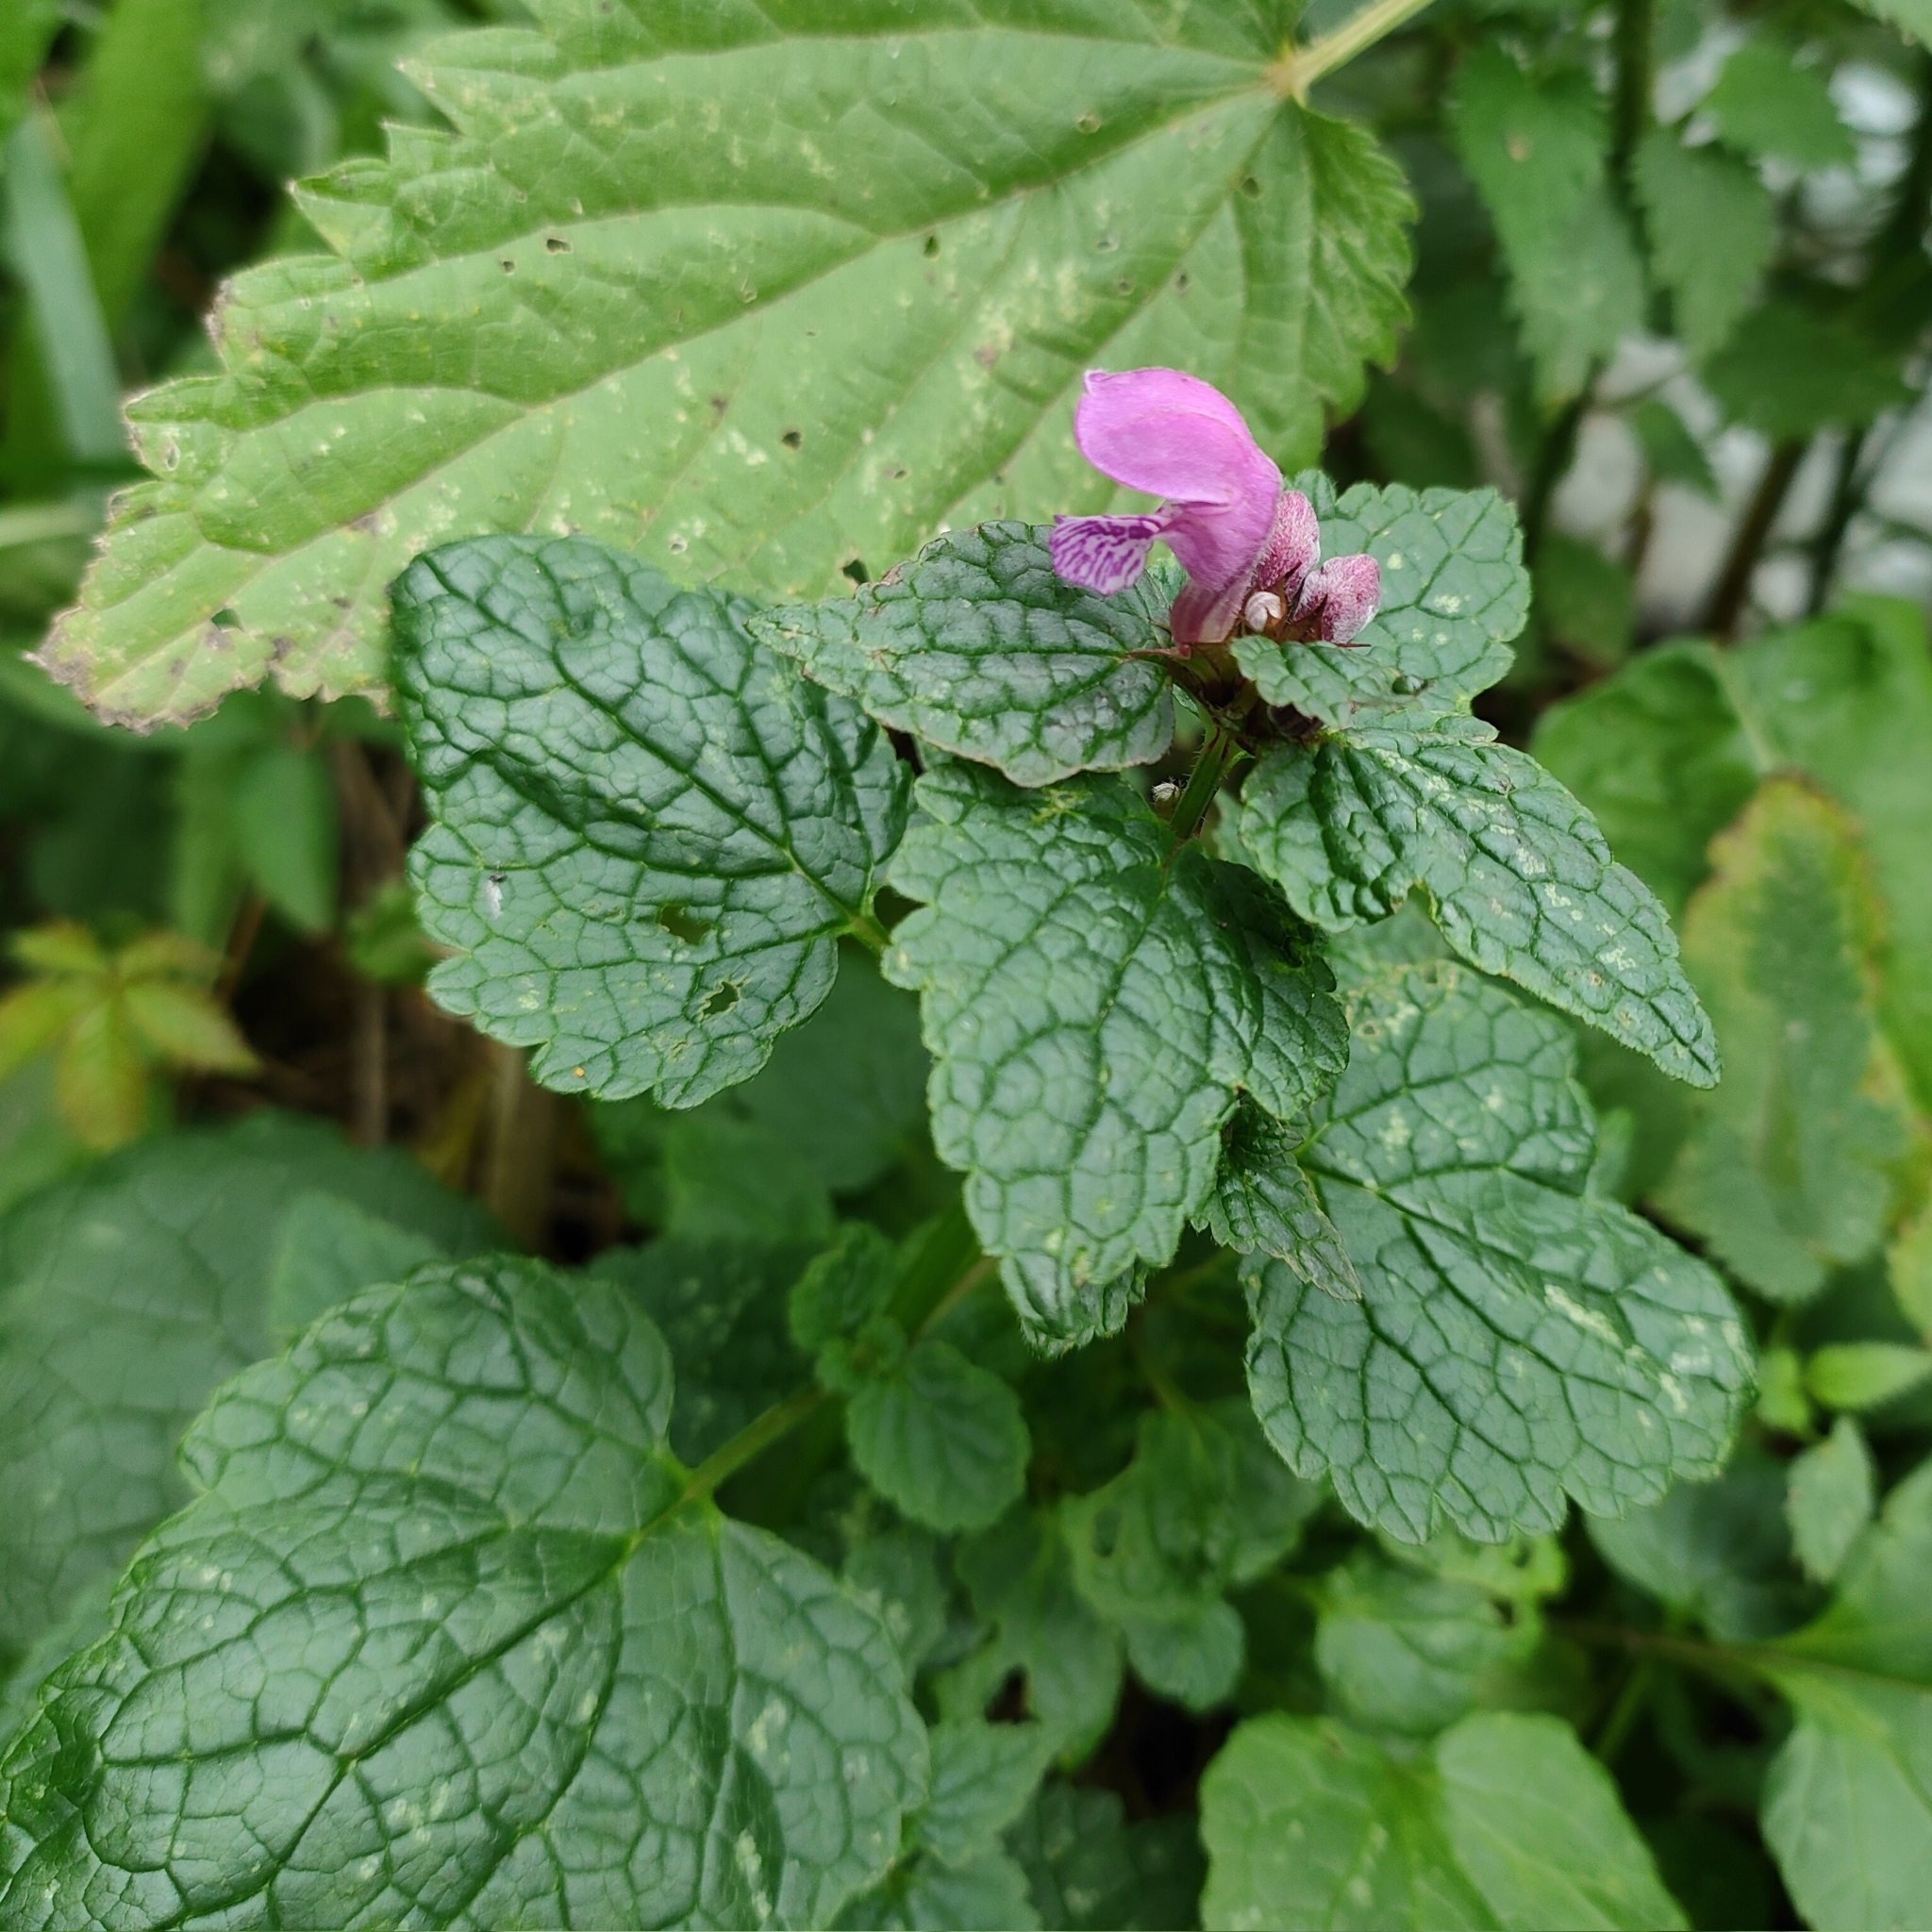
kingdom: Plantae
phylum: Tracheophyta
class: Magnoliopsida
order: Lamiales
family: Lamiaceae
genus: Lamium
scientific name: Lamium maculatum
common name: Spotted dead-nettle
